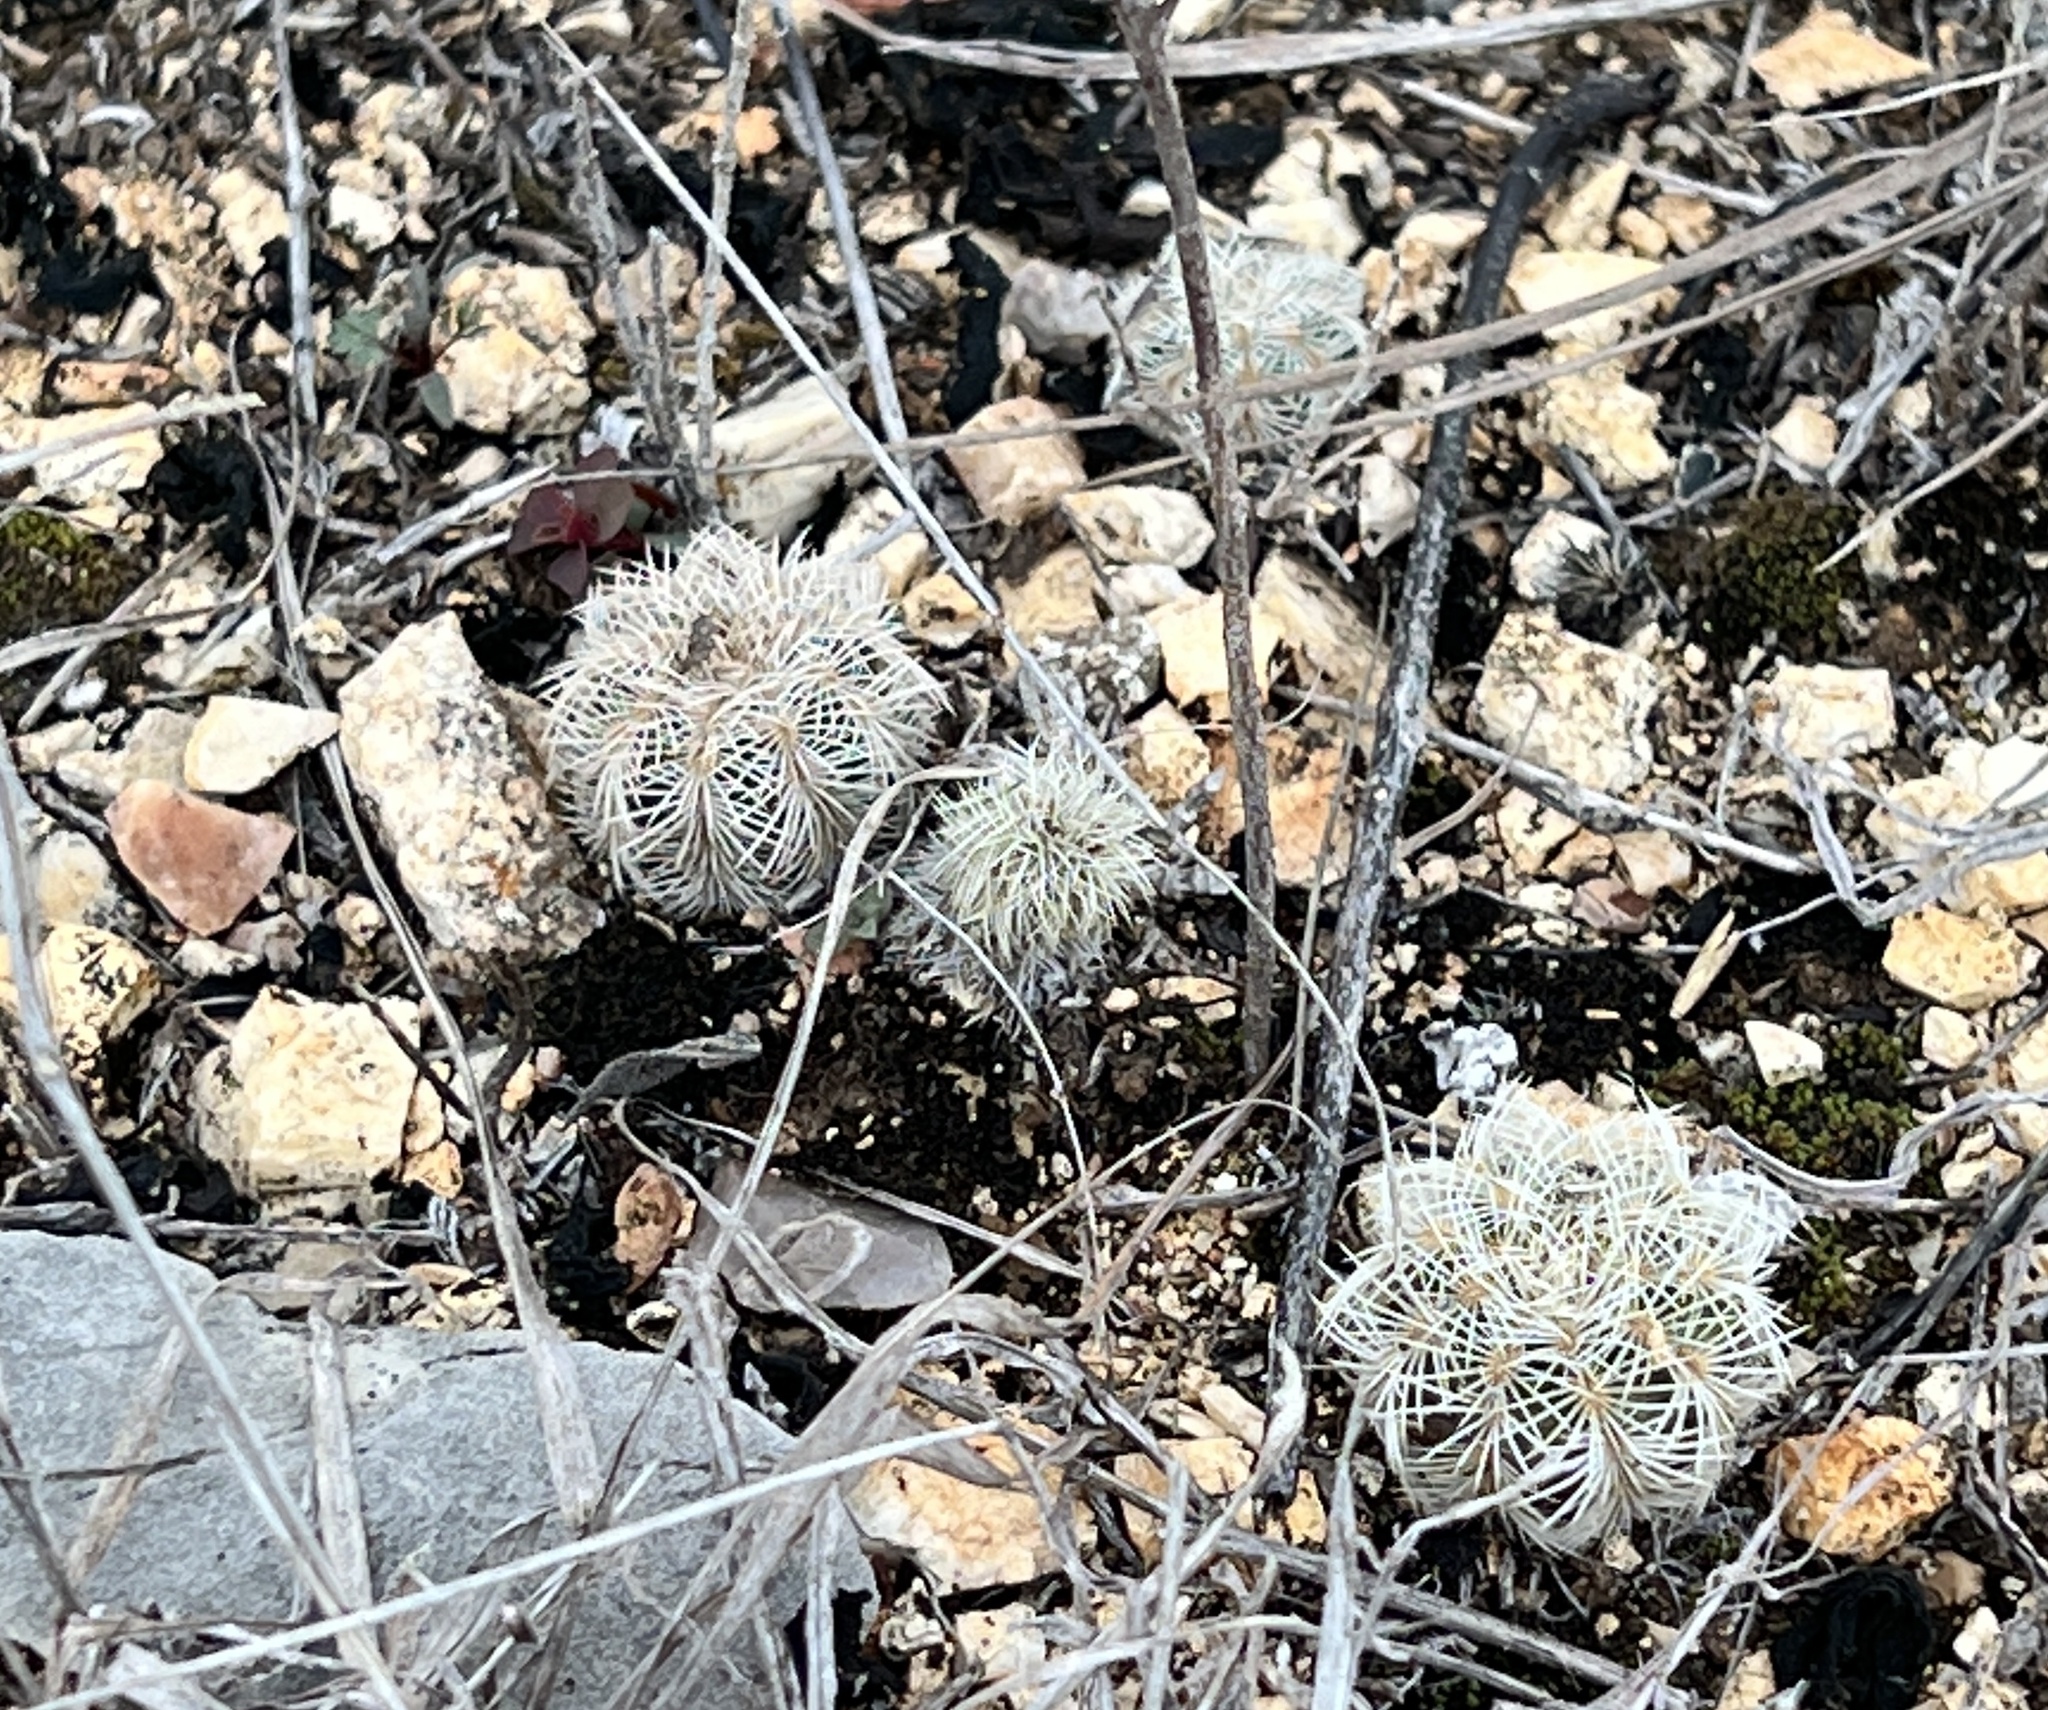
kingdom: Plantae
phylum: Tracheophyta
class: Magnoliopsida
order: Caryophyllales
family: Cactaceae
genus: Echinocereus
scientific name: Echinocereus reichenbachii
